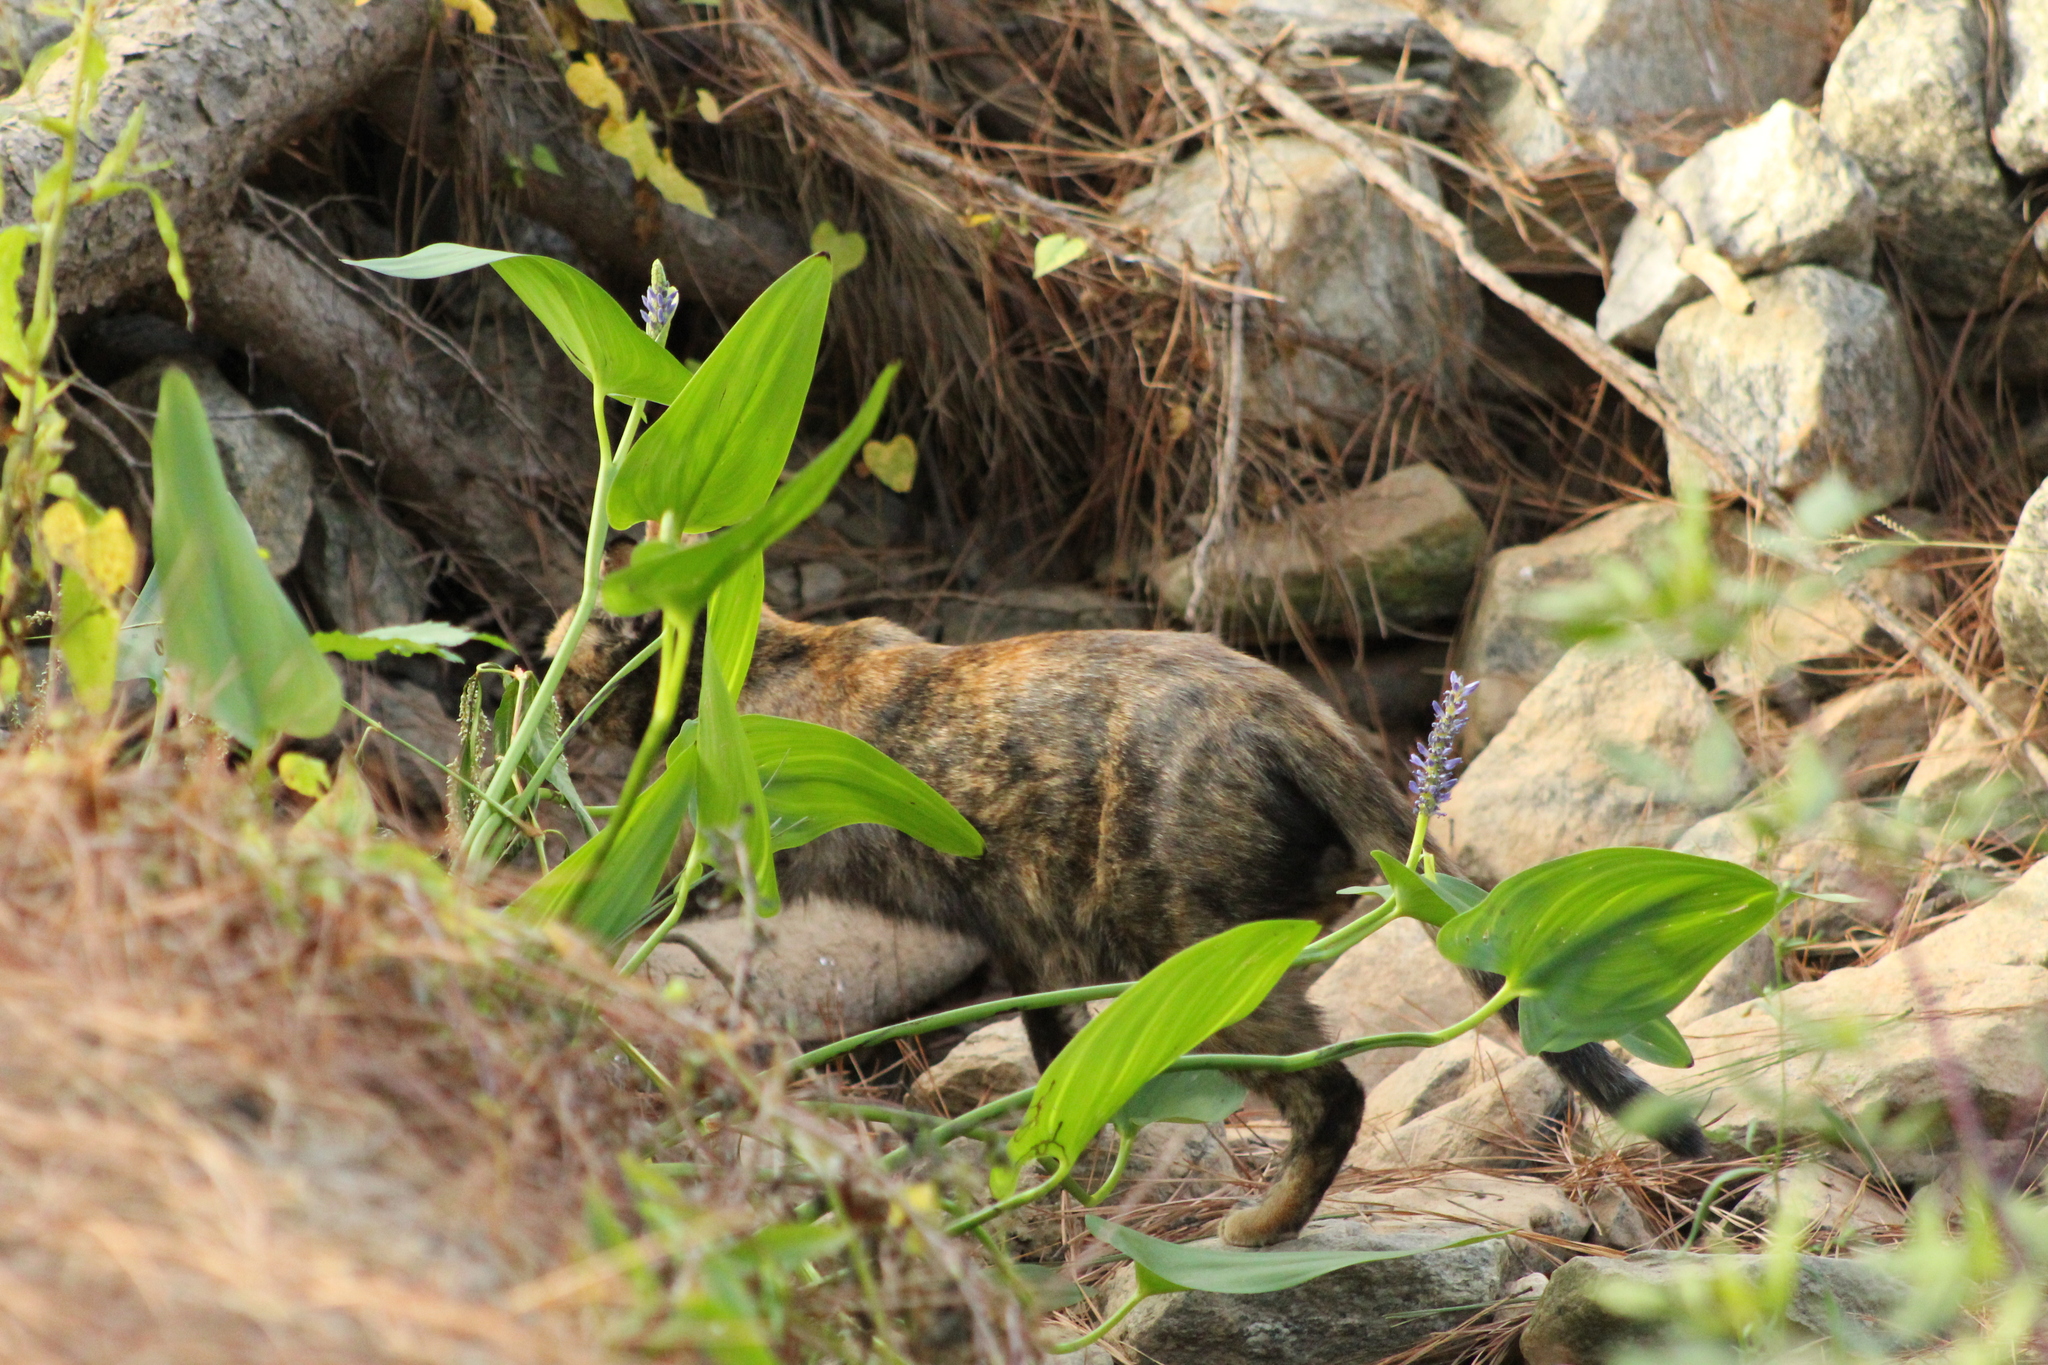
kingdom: Animalia
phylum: Chordata
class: Mammalia
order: Carnivora
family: Felidae
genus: Felis
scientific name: Felis catus
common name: Domestic cat
